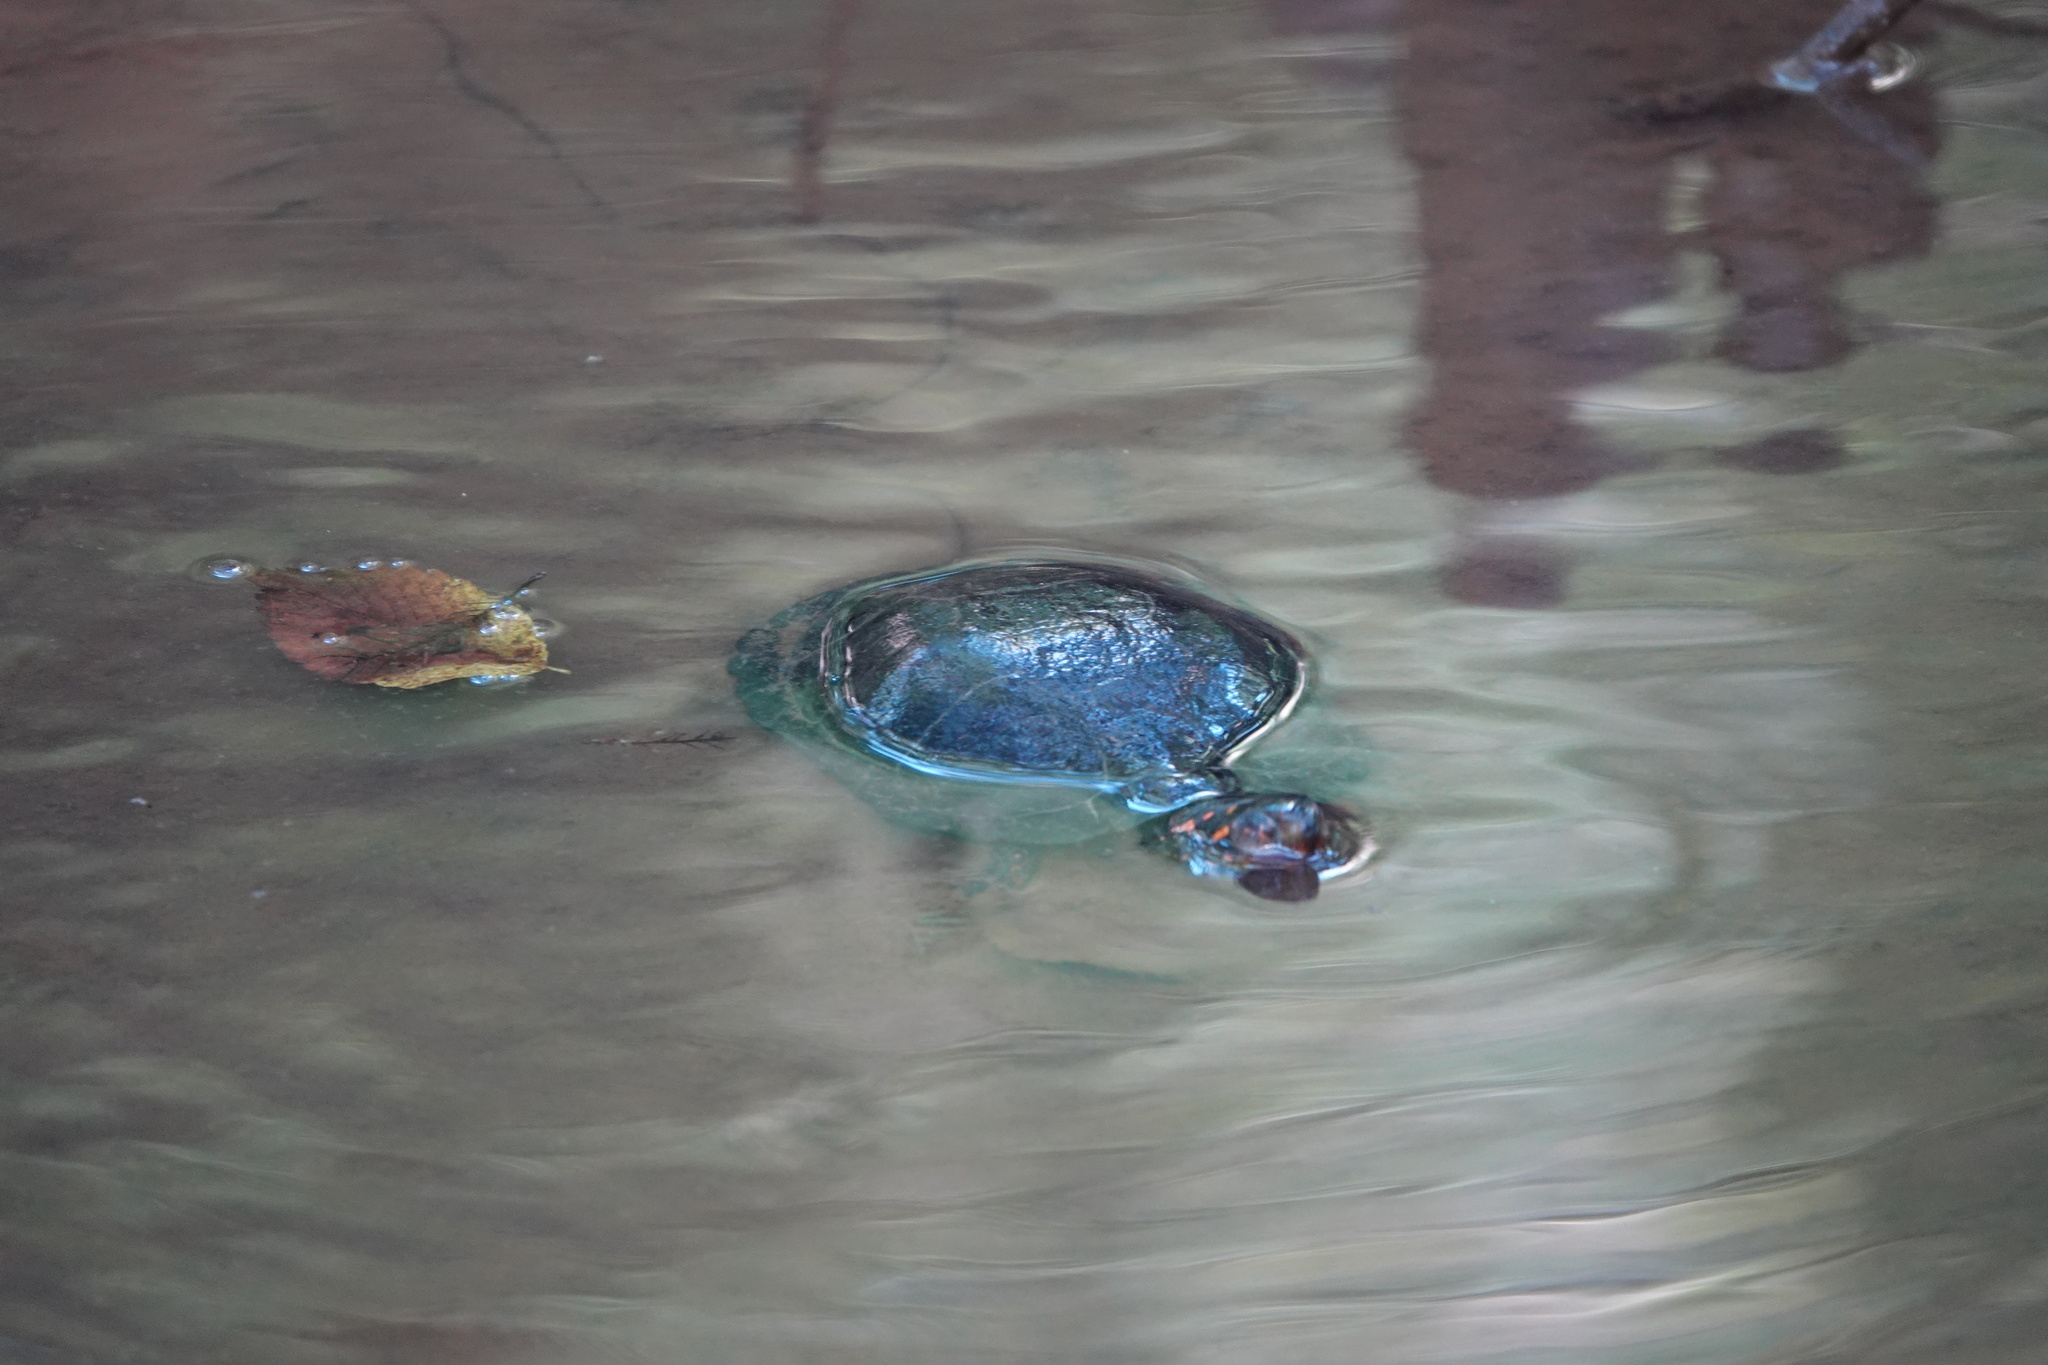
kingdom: Animalia
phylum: Chordata
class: Testudines
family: Emydidae
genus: Clemmys
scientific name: Clemmys guttata
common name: Spotted turtle
